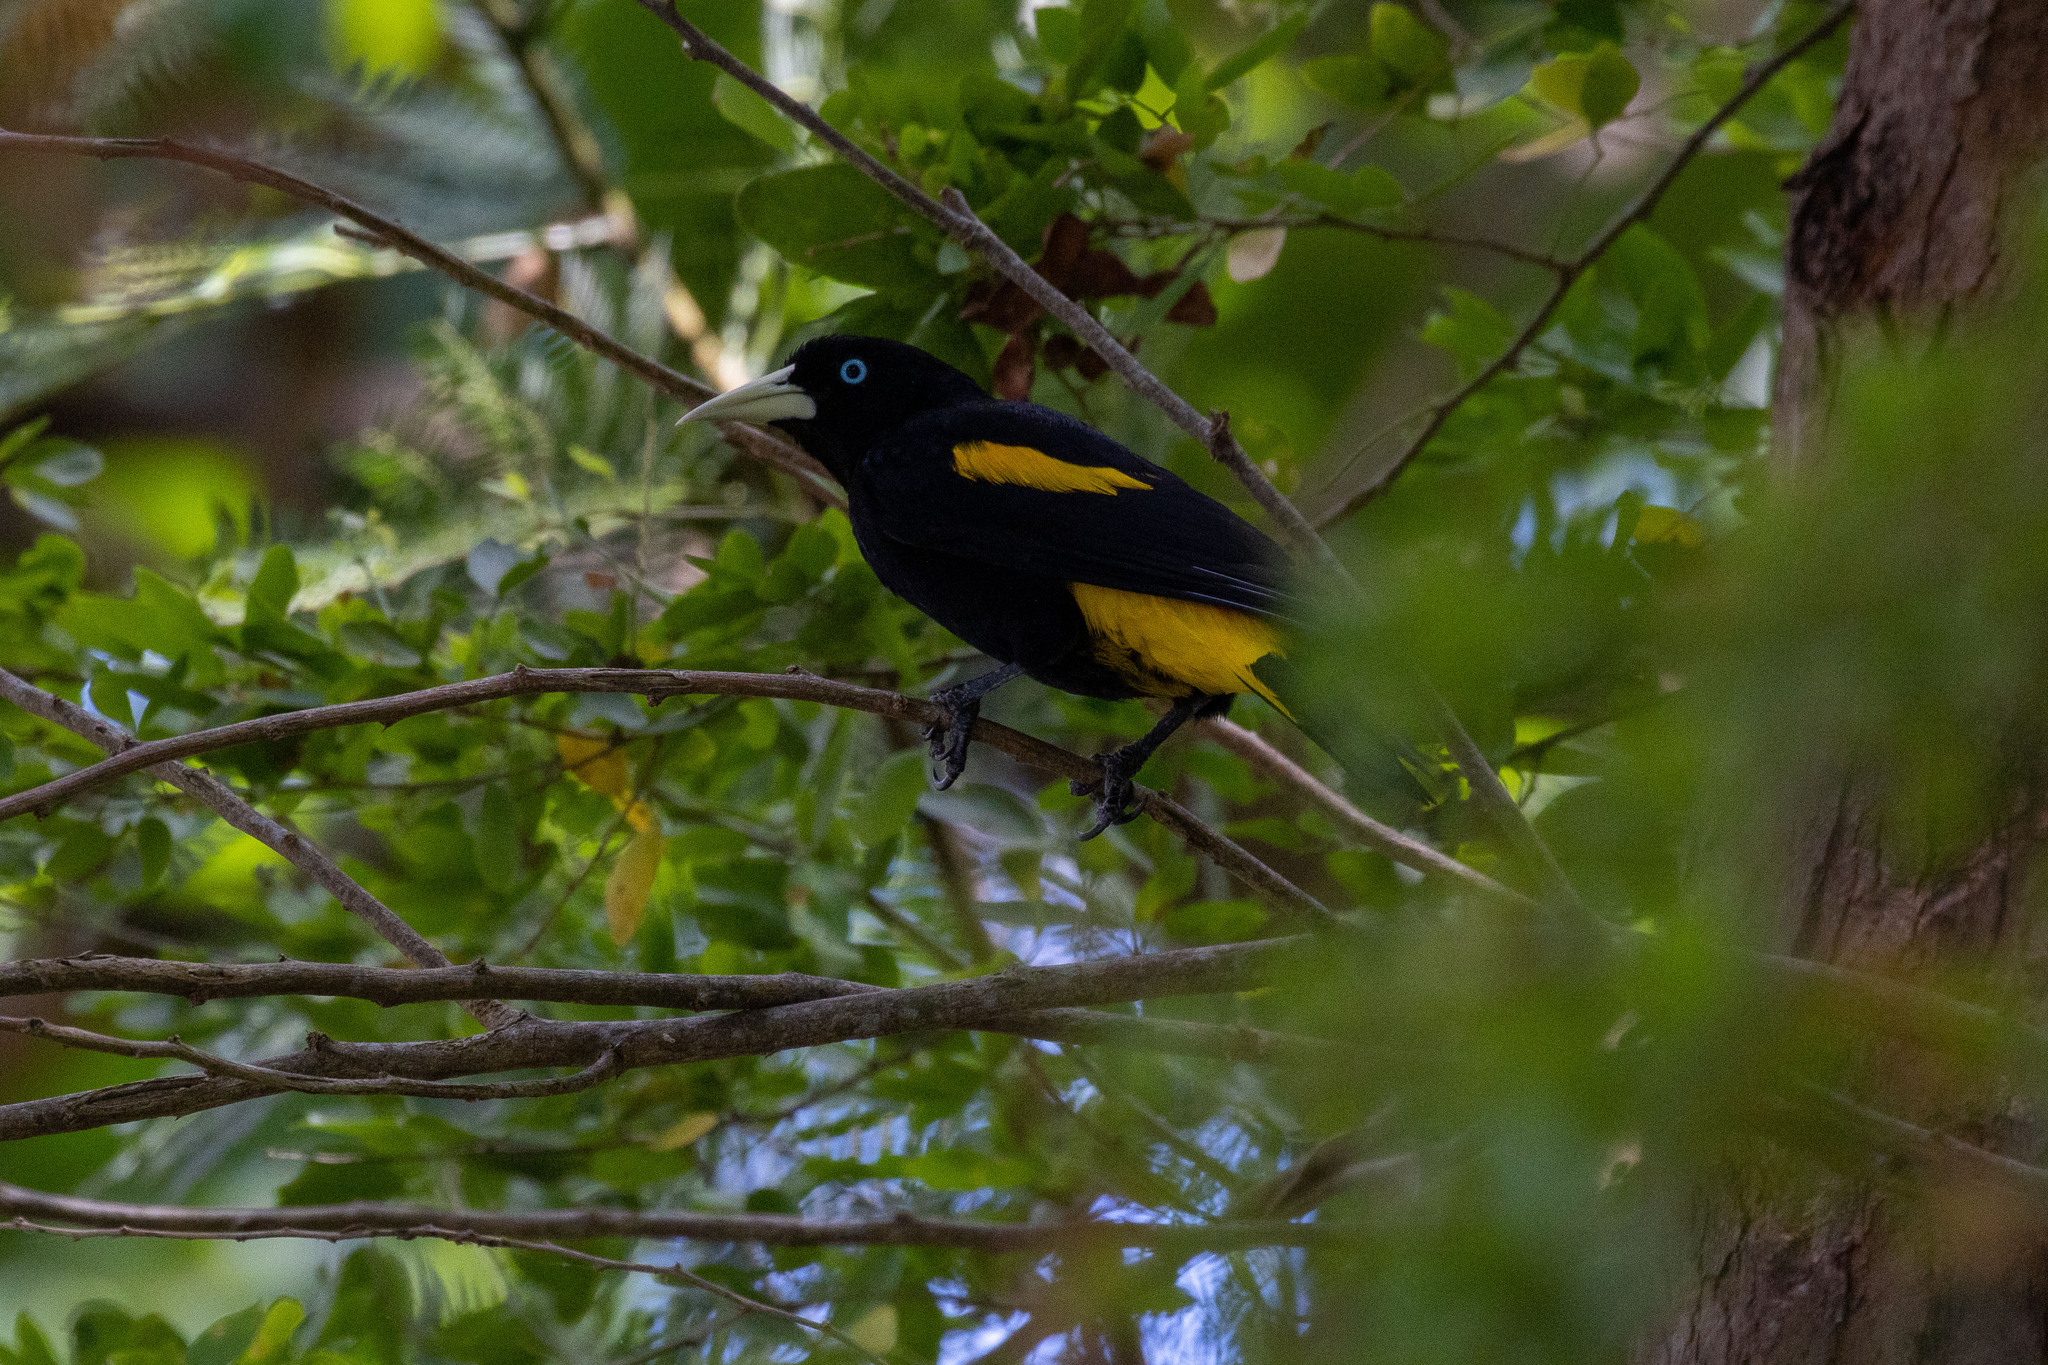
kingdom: Animalia
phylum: Chordata
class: Aves
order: Passeriformes
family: Icteridae
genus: Cacicus
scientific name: Cacicus cela
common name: Yellow-rumped cacique
